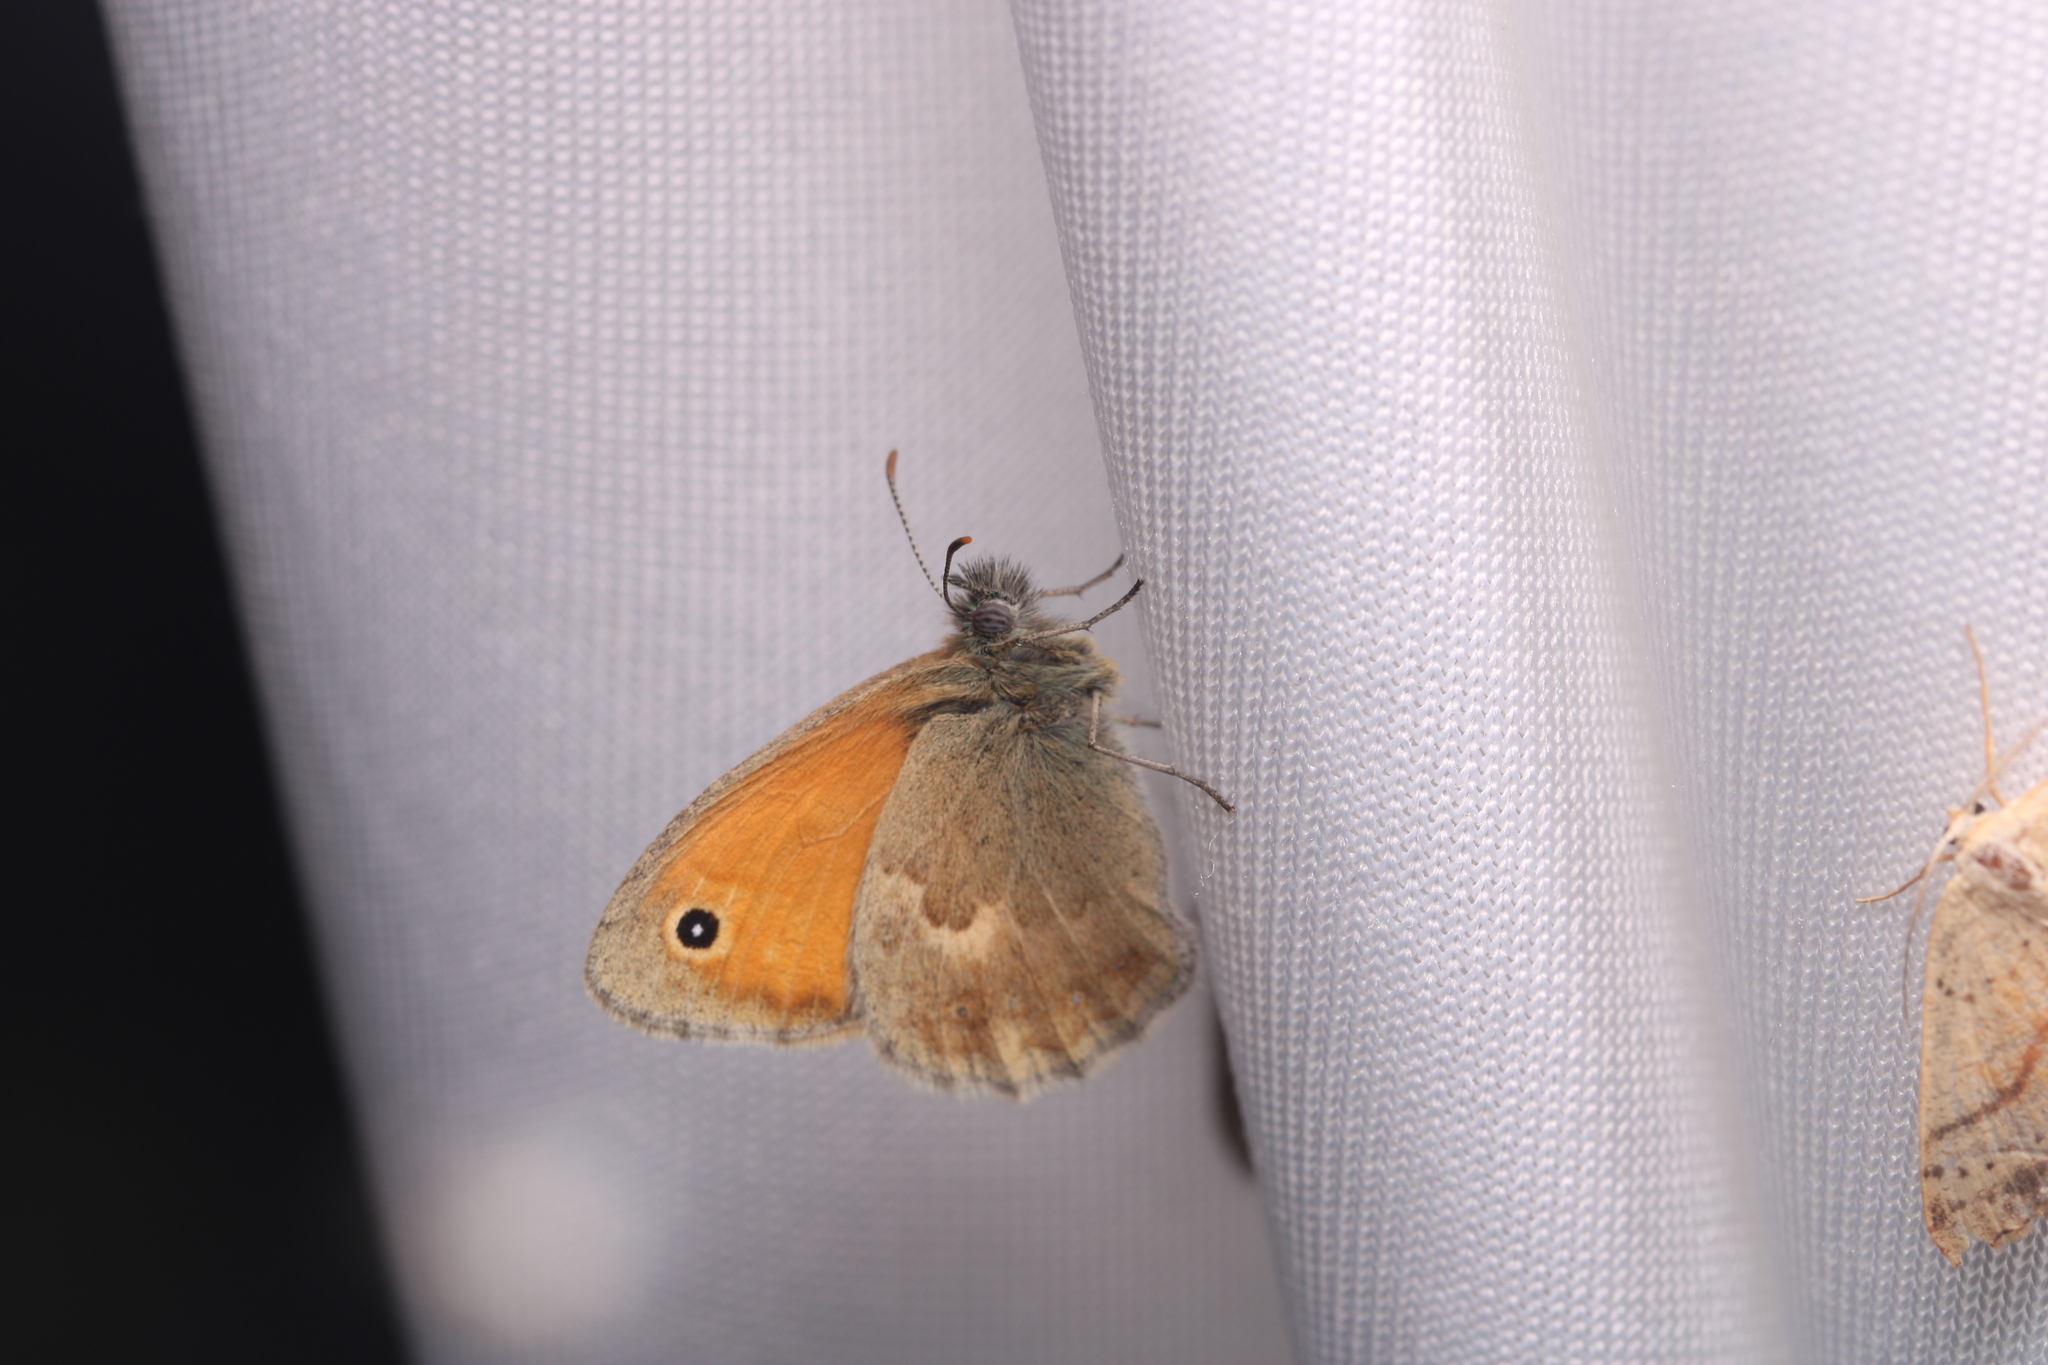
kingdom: Animalia
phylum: Arthropoda
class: Insecta
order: Lepidoptera
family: Nymphalidae
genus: Coenonympha
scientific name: Coenonympha pamphilus
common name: Small heath
